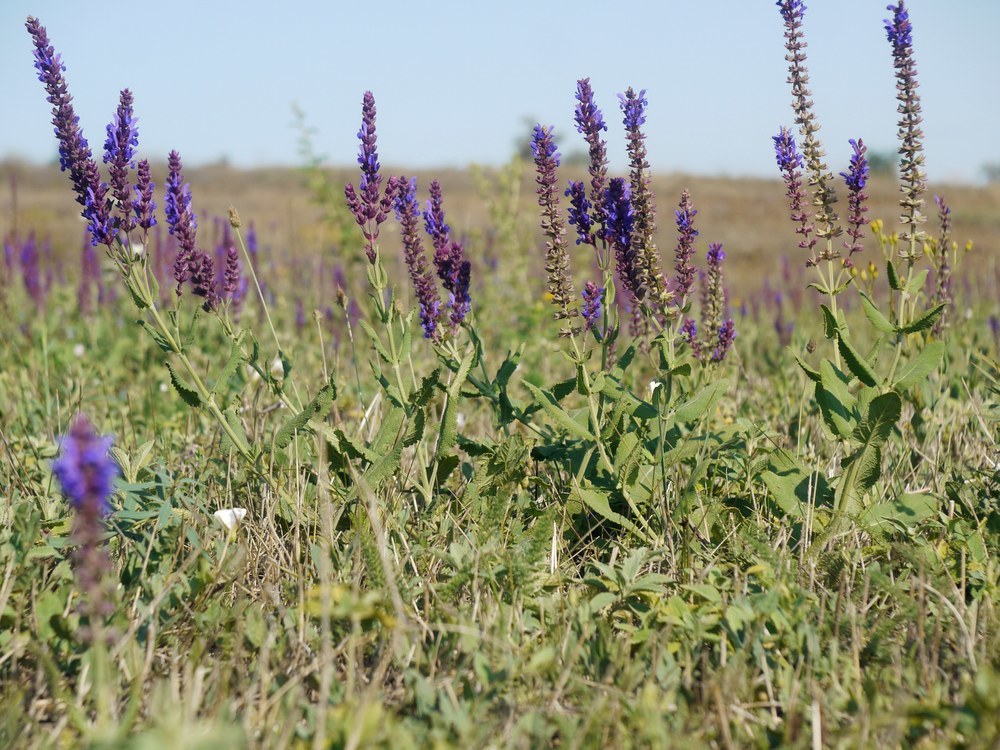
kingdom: Plantae
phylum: Tracheophyta
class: Magnoliopsida
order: Lamiales
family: Lamiaceae
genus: Salvia
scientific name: Salvia nemorosa
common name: Balkan clary
